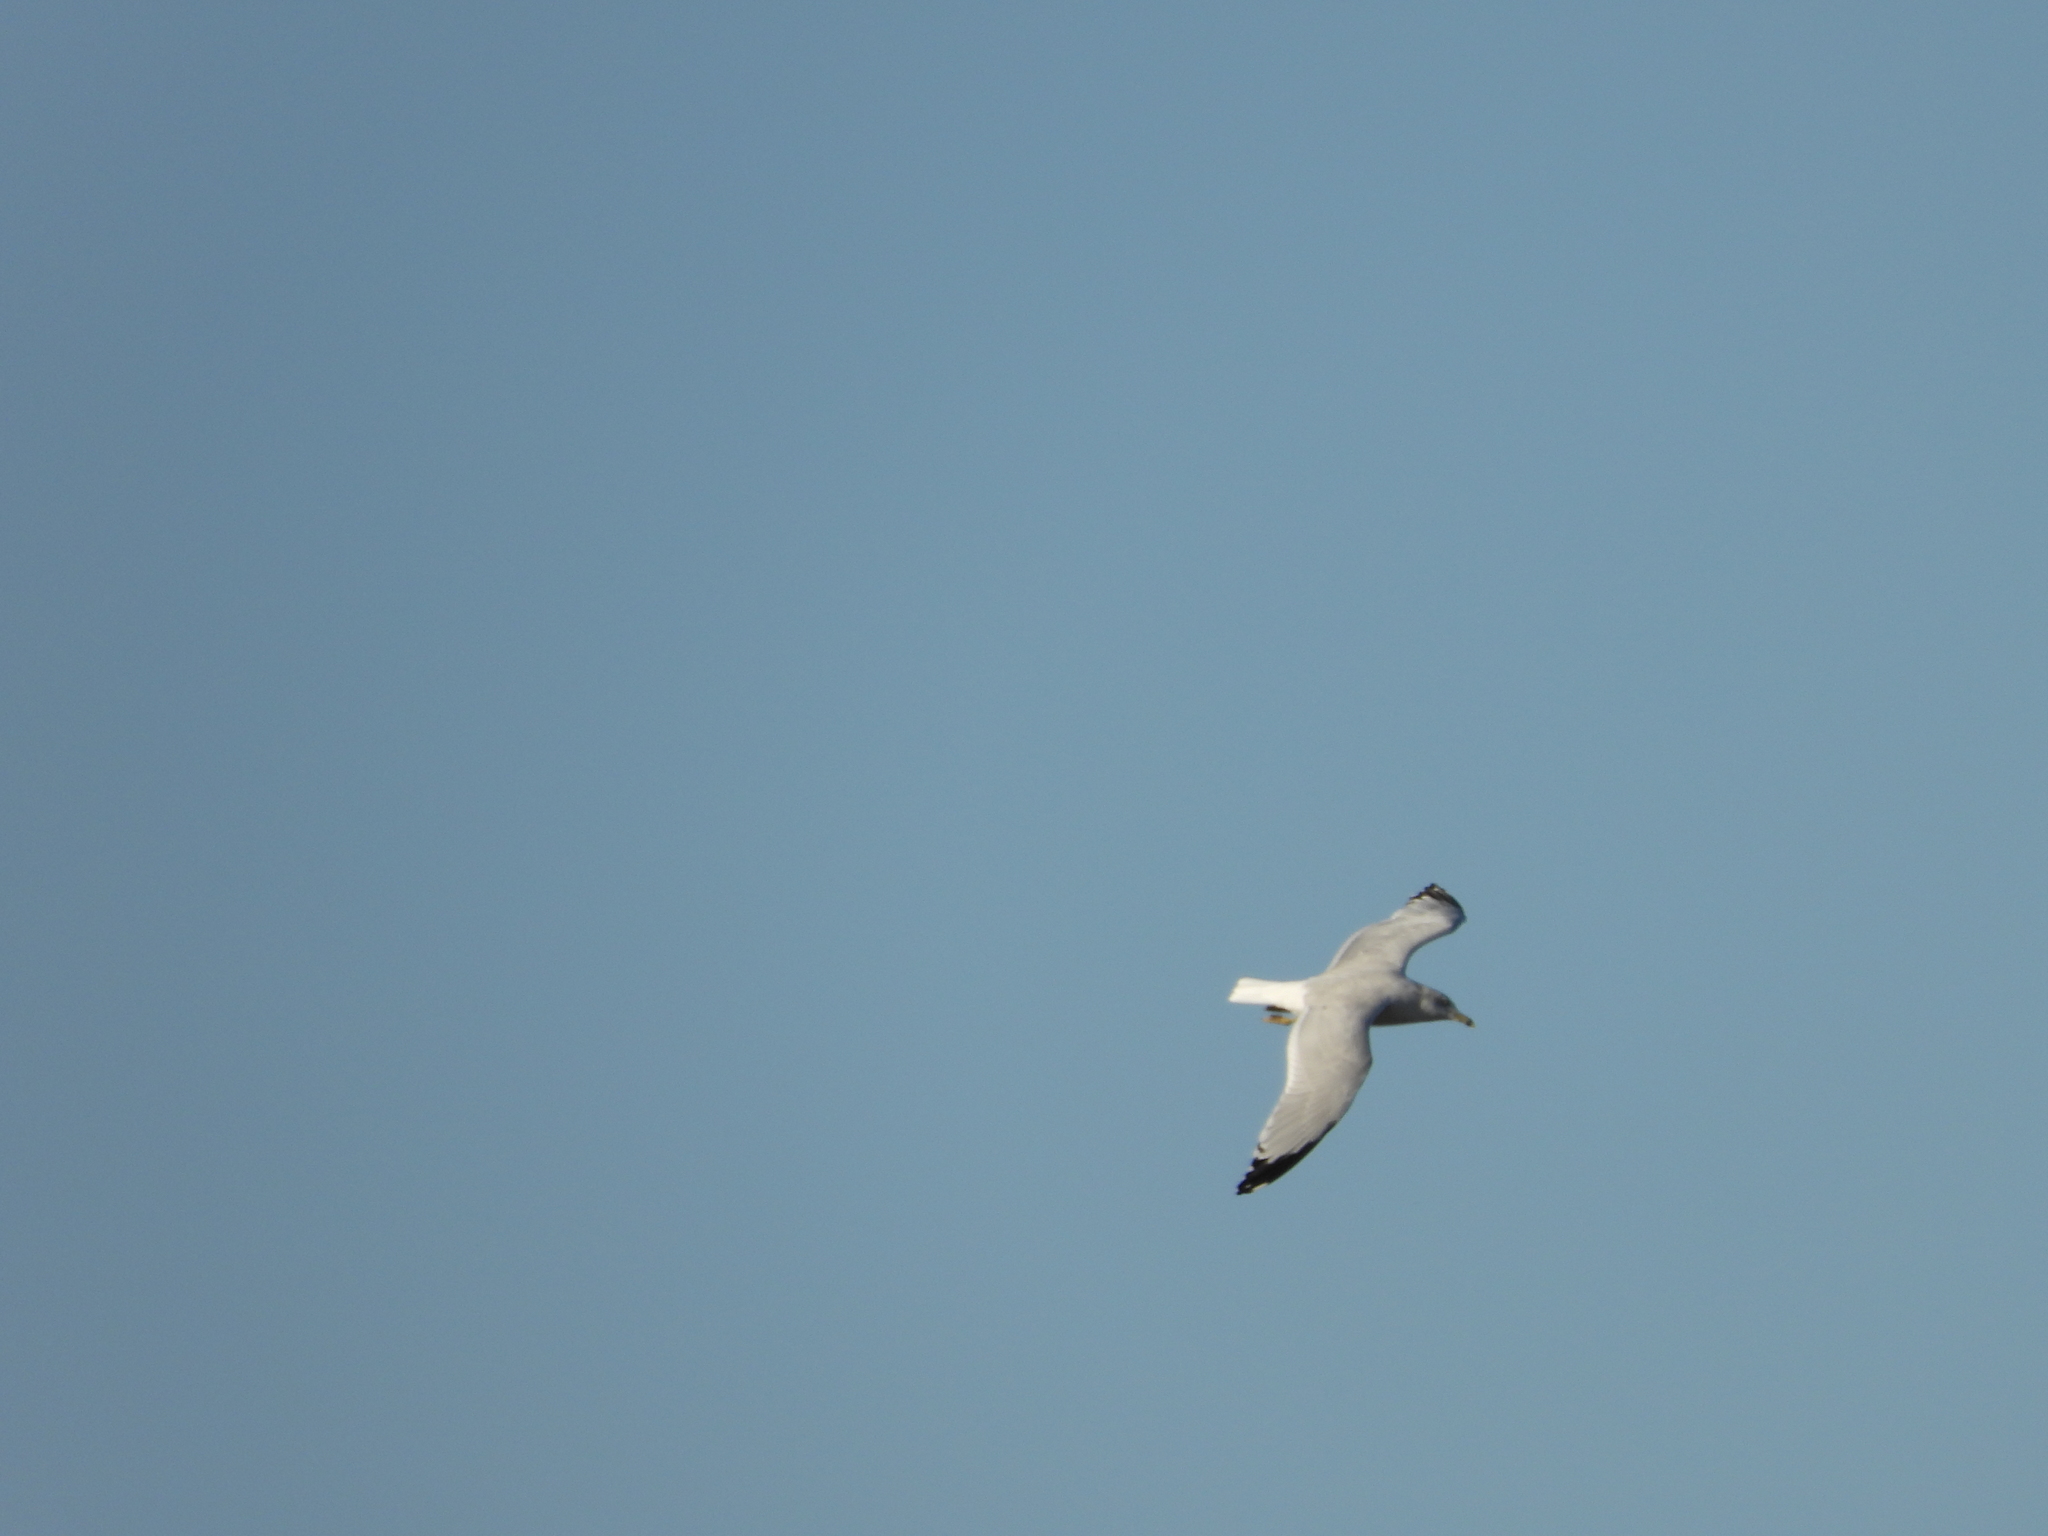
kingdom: Animalia
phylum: Chordata
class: Aves
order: Charadriiformes
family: Laridae
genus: Larus
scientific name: Larus delawarensis
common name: Ring-billed gull
